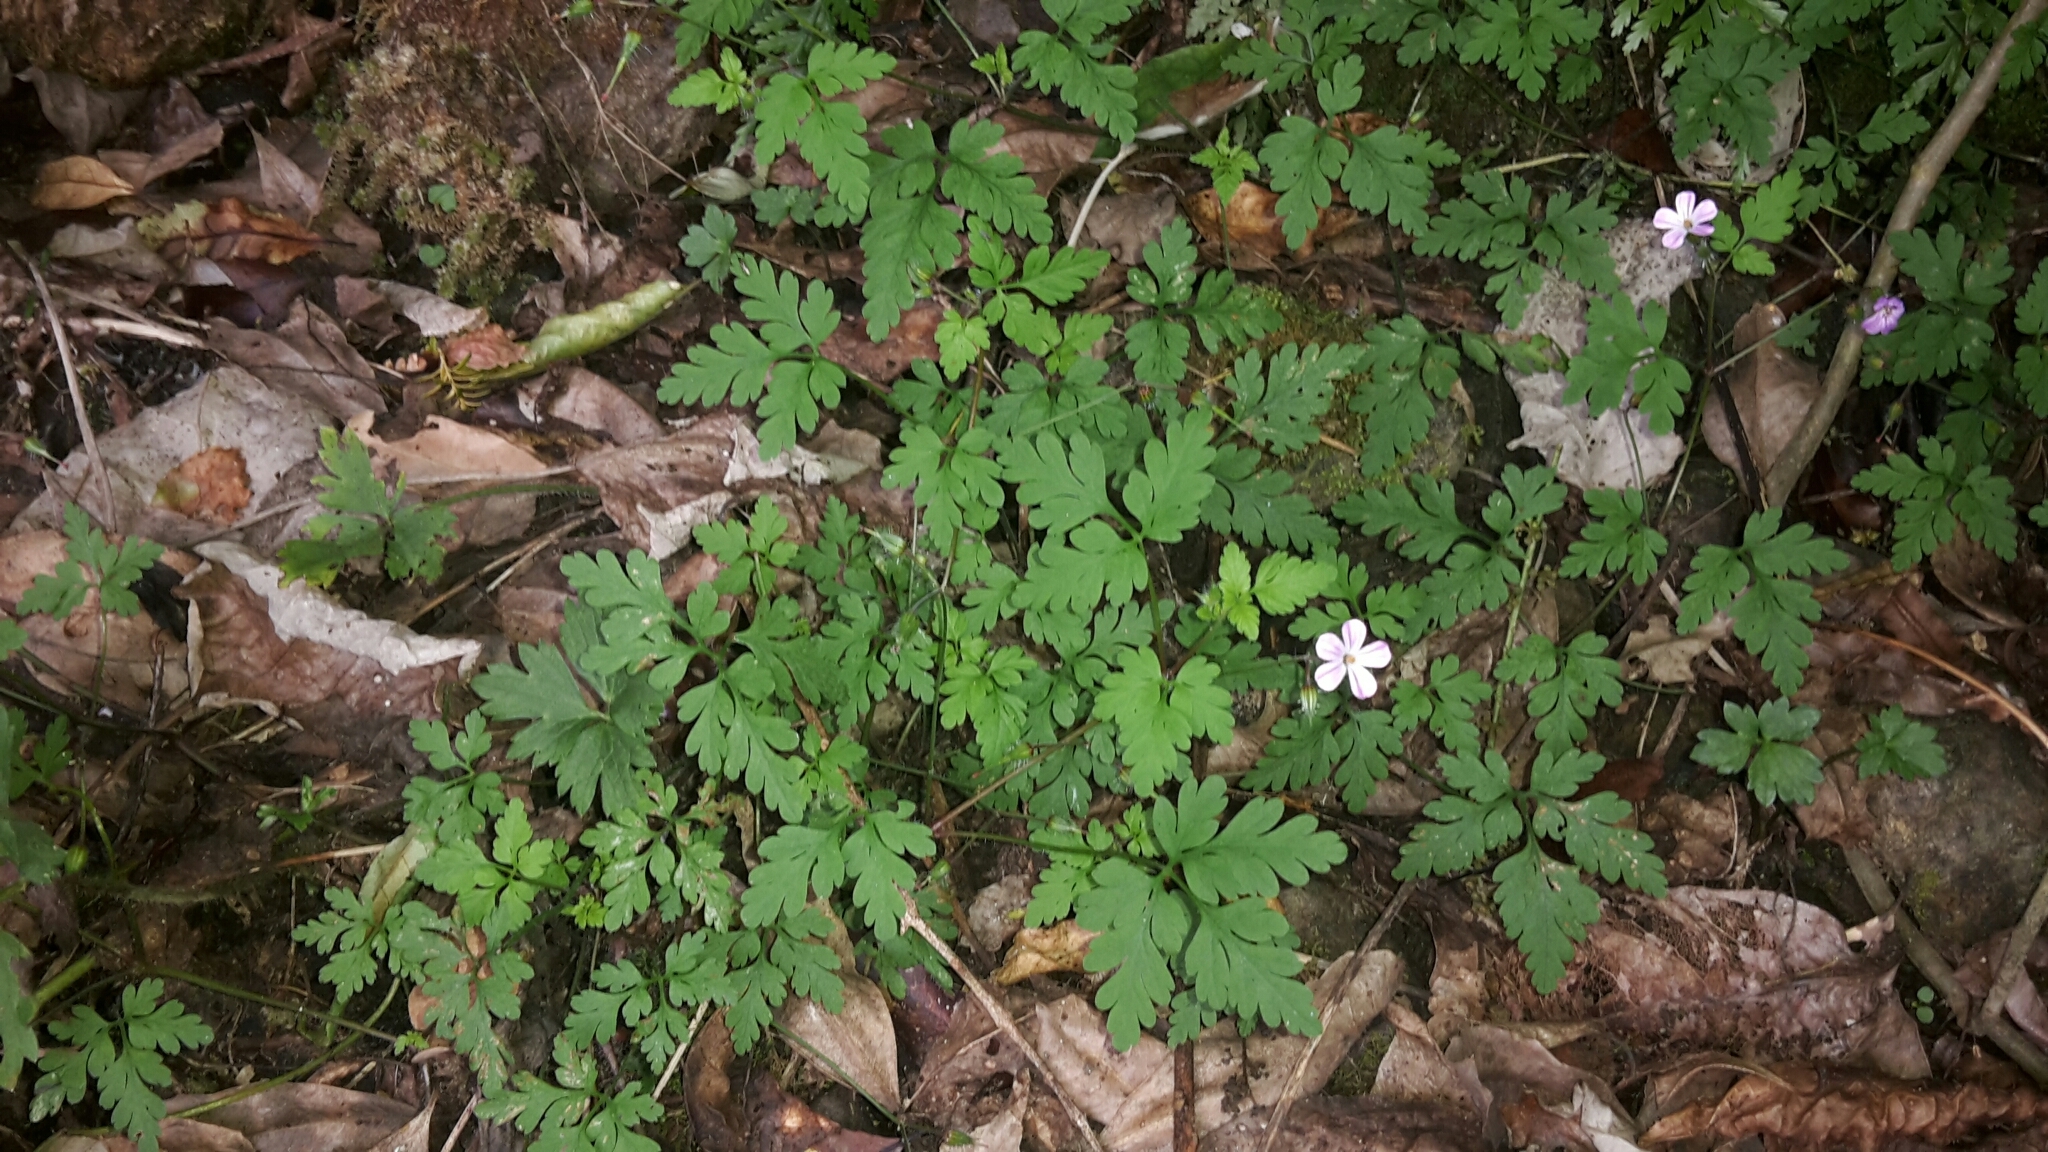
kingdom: Plantae
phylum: Tracheophyta
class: Magnoliopsida
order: Geraniales
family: Geraniaceae
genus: Geranium
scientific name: Geranium robertianum
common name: Herb-robert
